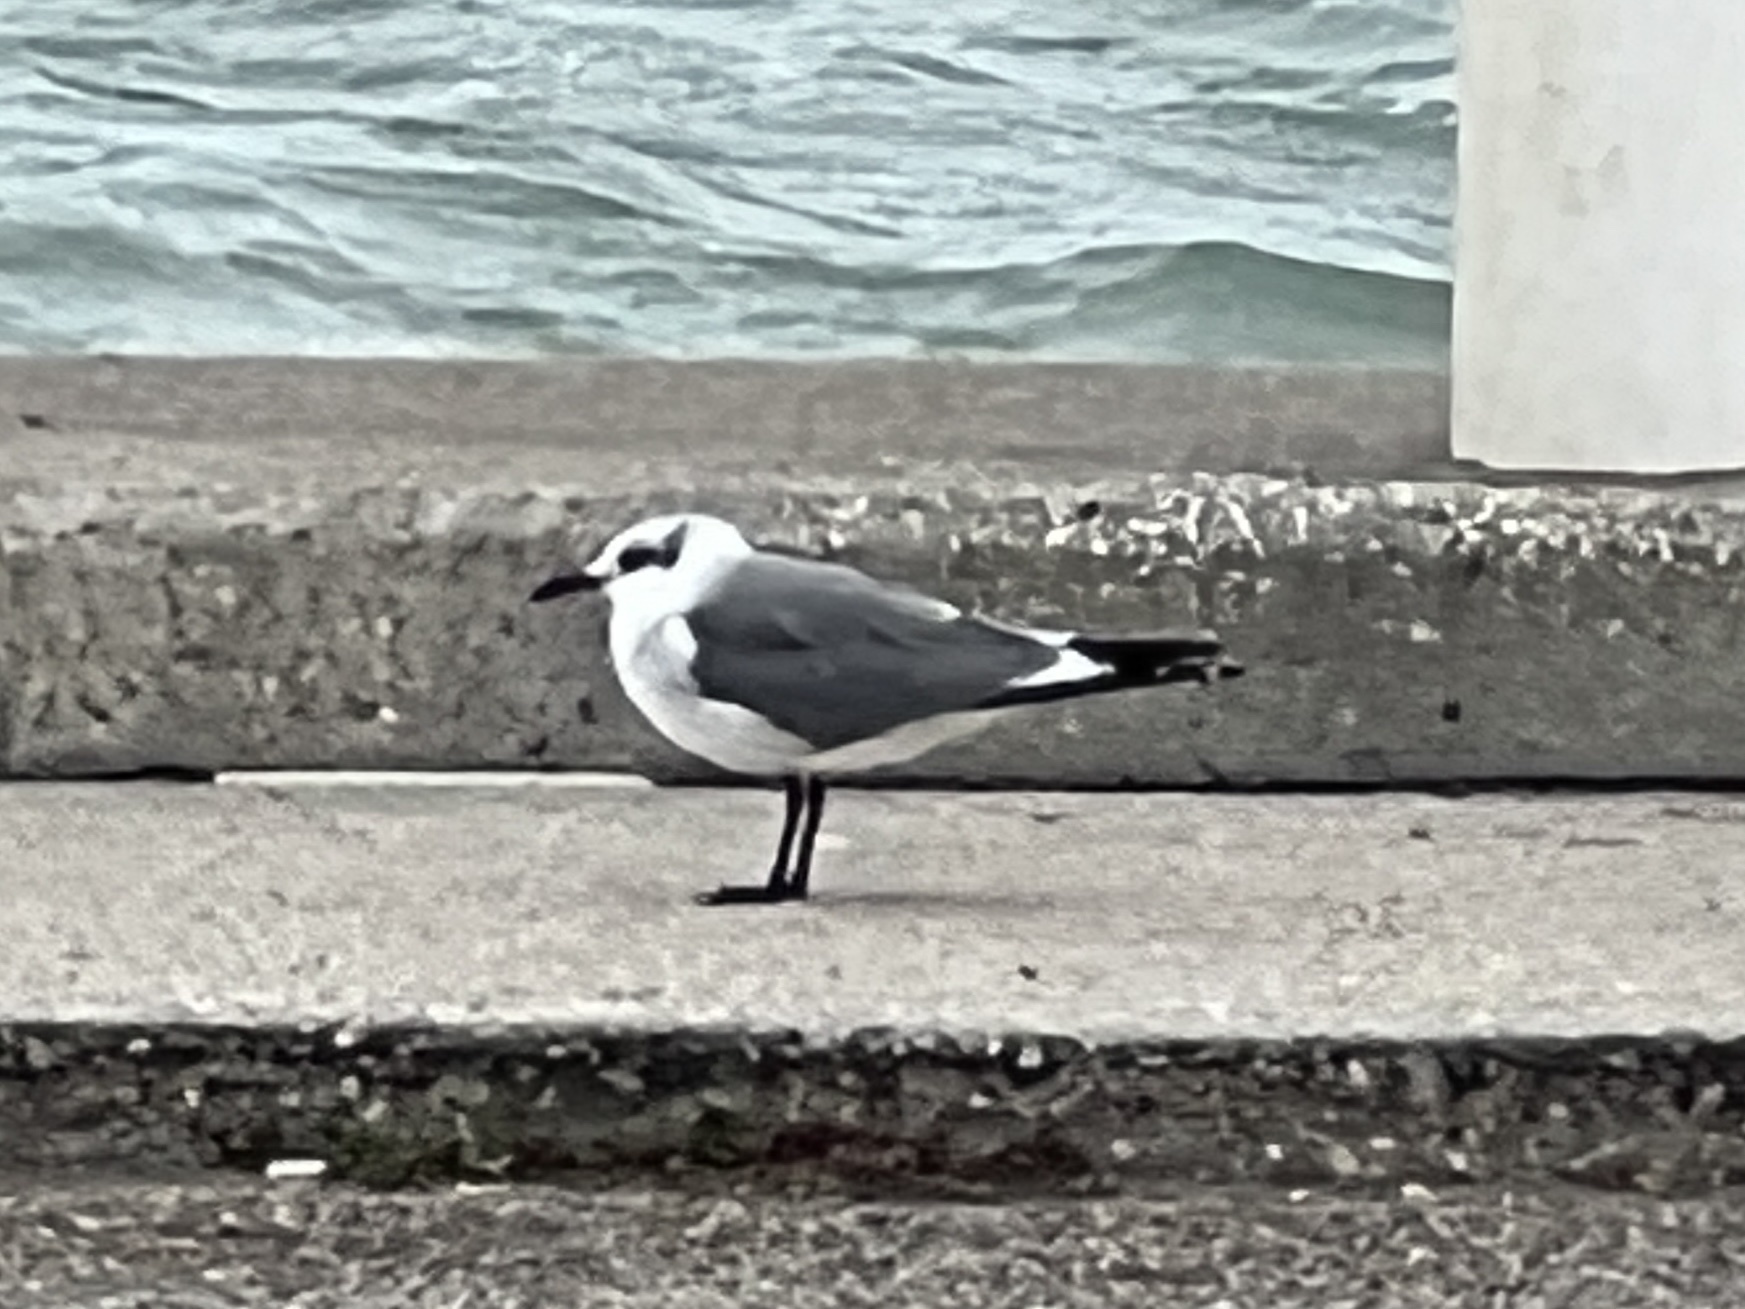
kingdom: Animalia
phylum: Chordata
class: Aves
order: Charadriiformes
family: Laridae
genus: Leucophaeus
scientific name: Leucophaeus atricilla
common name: Laughing gull
